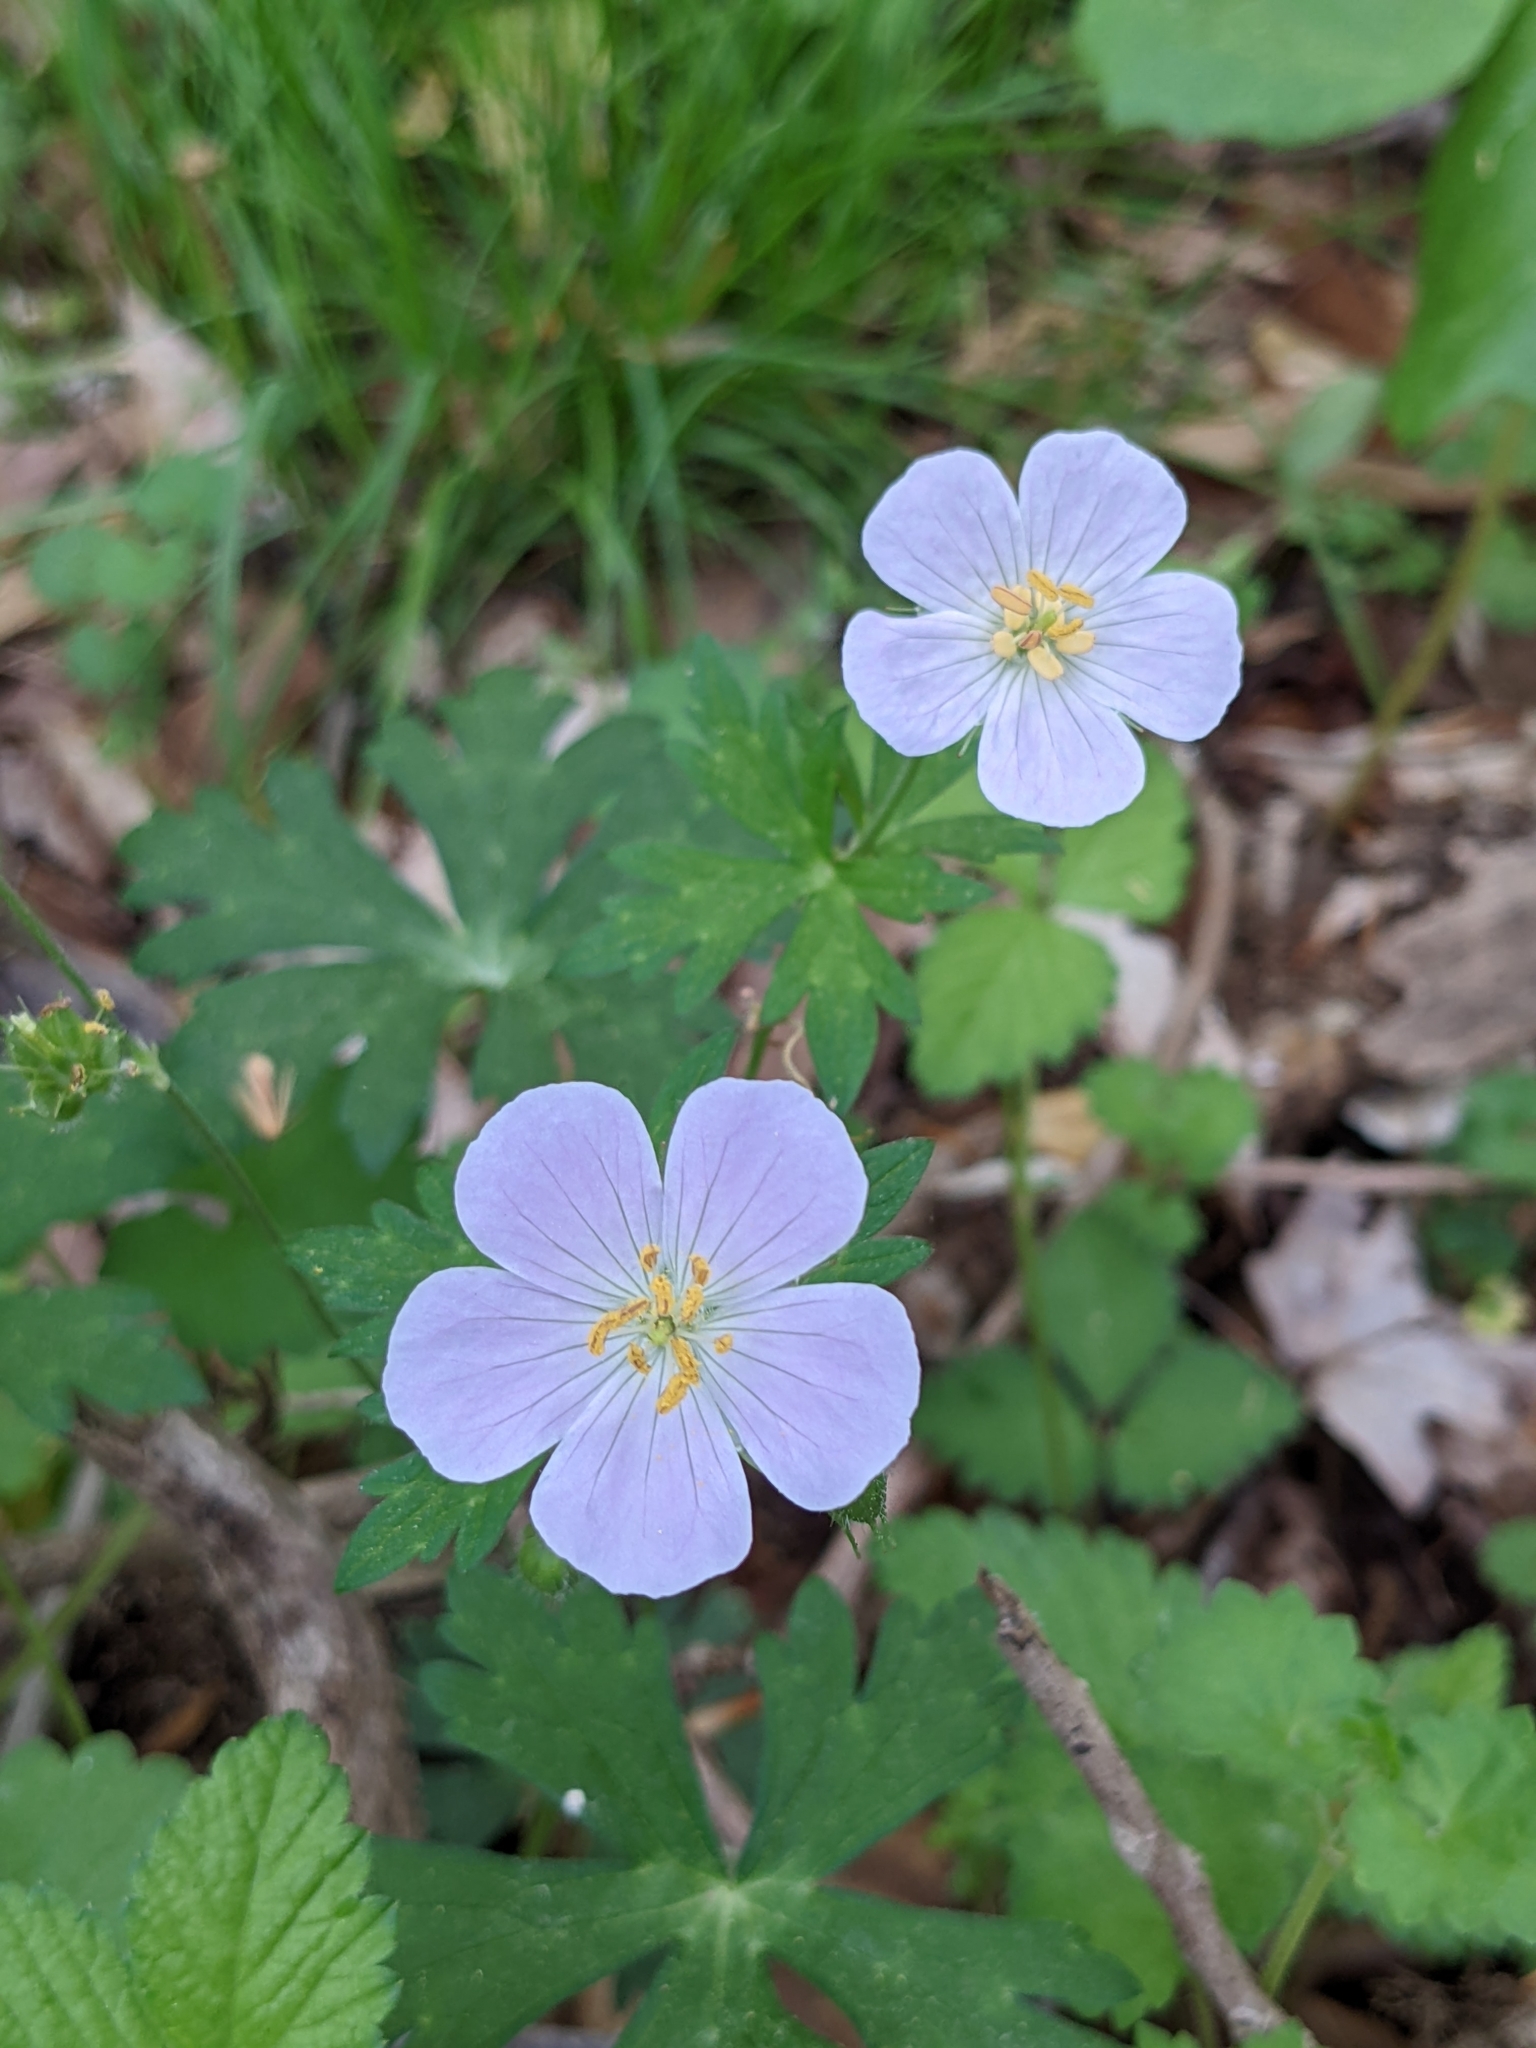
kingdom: Plantae
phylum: Tracheophyta
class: Magnoliopsida
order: Geraniales
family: Geraniaceae
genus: Geranium
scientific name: Geranium maculatum
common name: Spotted geranium
